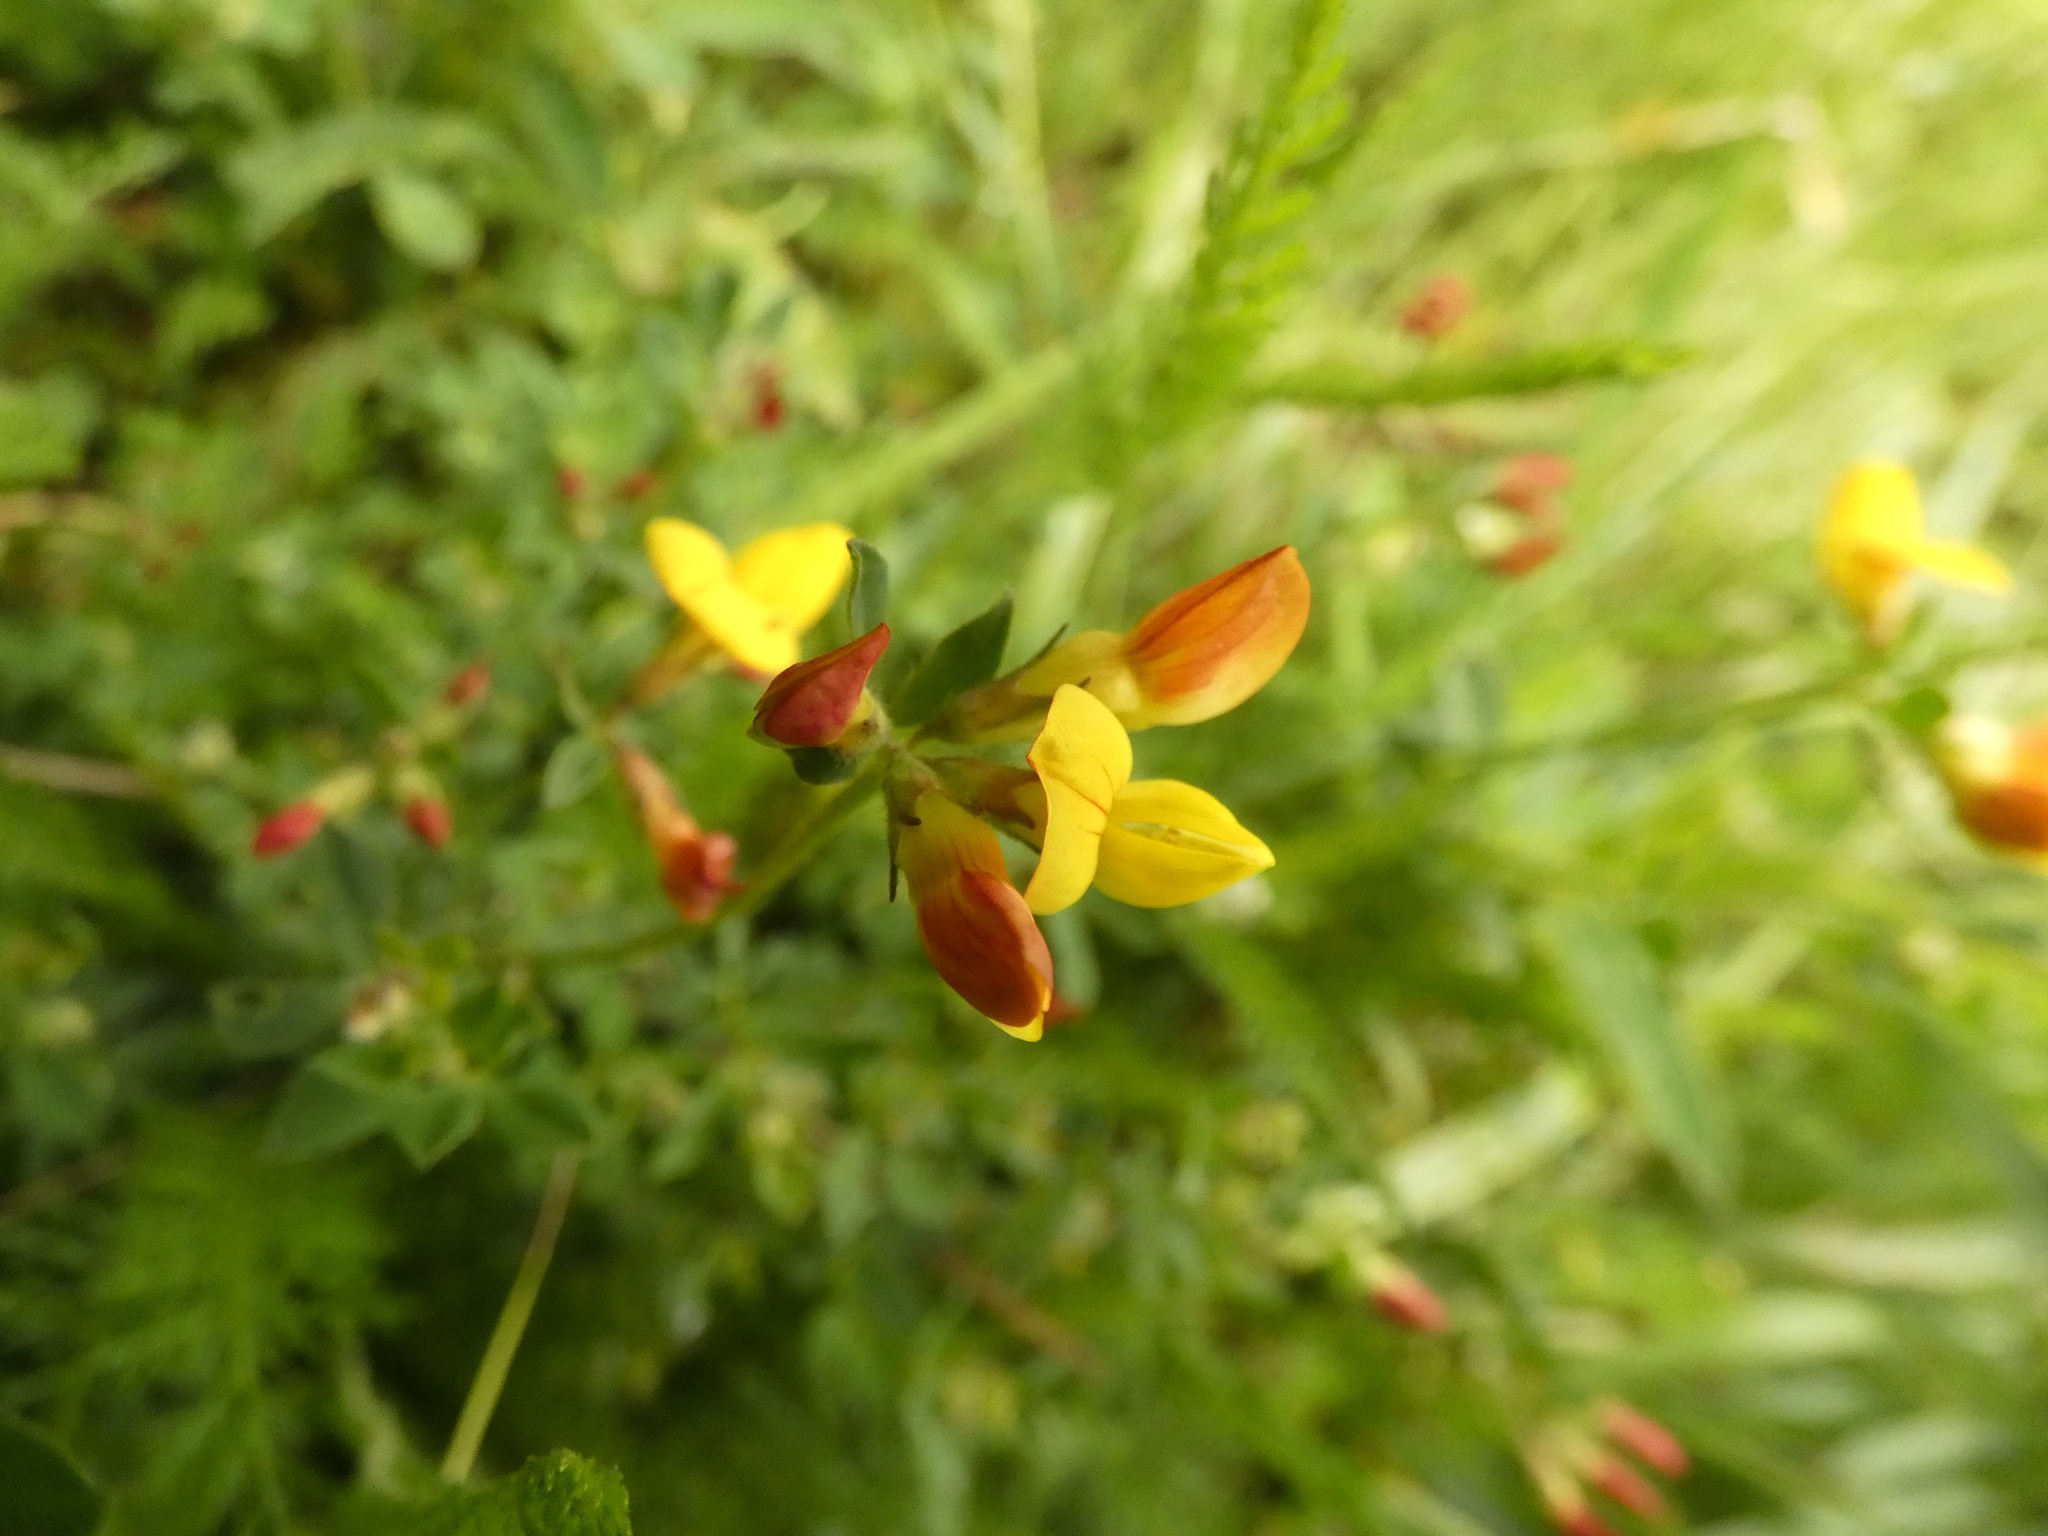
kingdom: Plantae
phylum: Tracheophyta
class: Magnoliopsida
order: Fabales
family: Fabaceae
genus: Lotus
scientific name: Lotus corniculatus
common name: Common bird's-foot-trefoil
